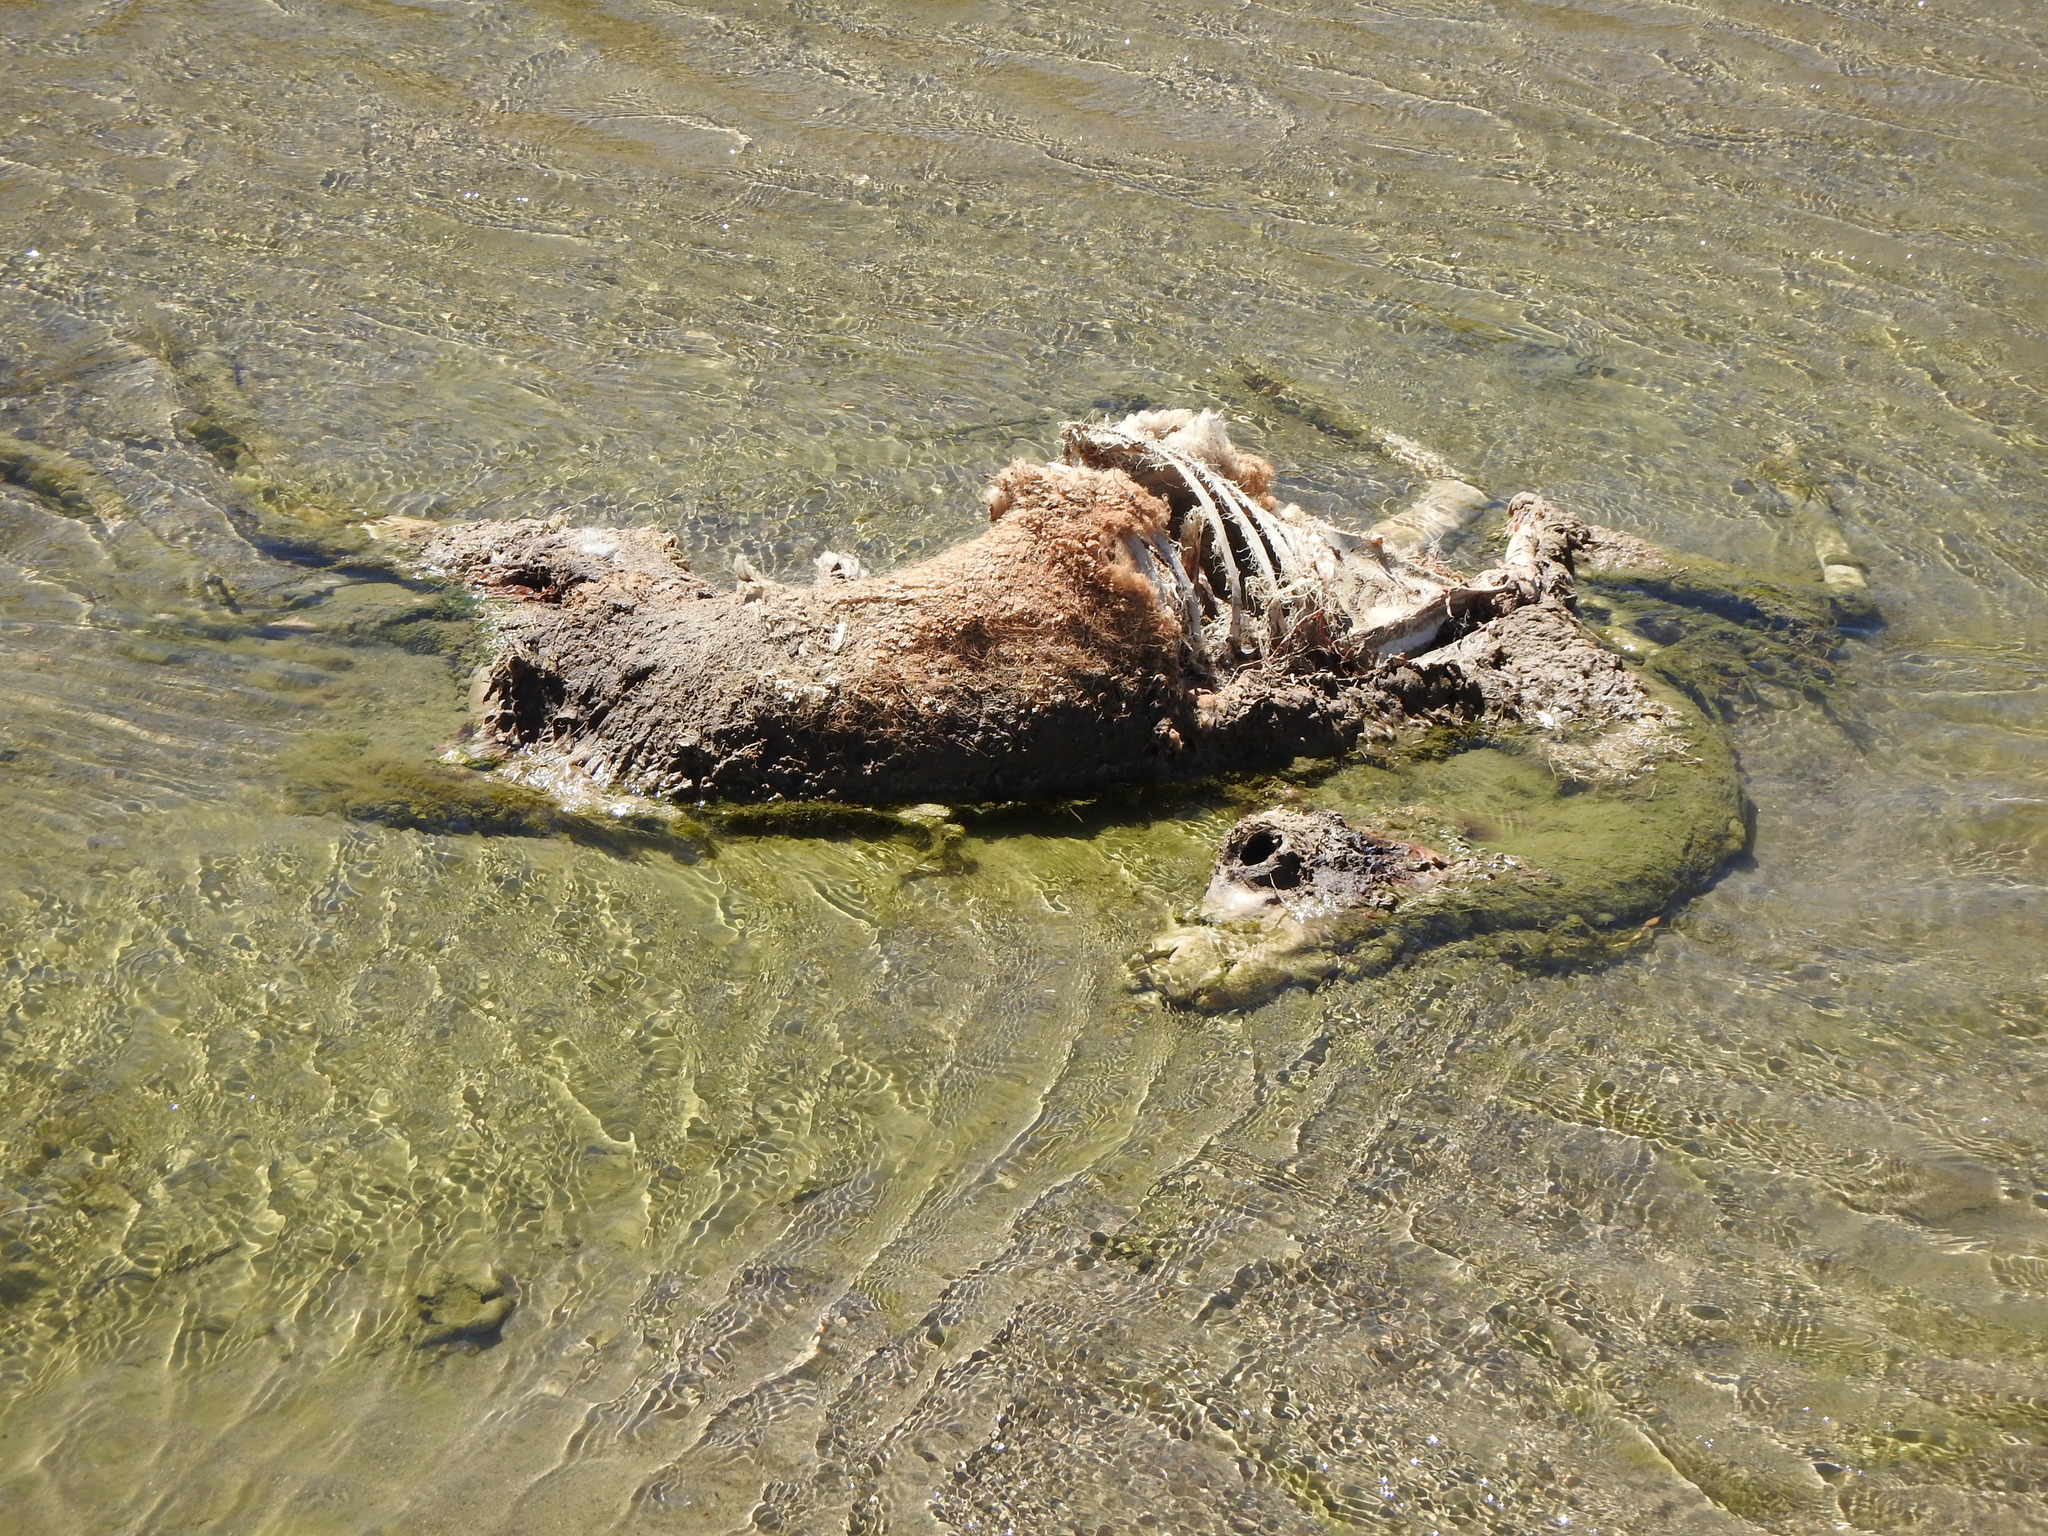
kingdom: Animalia
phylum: Chordata
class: Mammalia
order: Artiodactyla
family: Camelidae
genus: Vicugna
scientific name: Vicugna vicugna
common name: Vicugna
